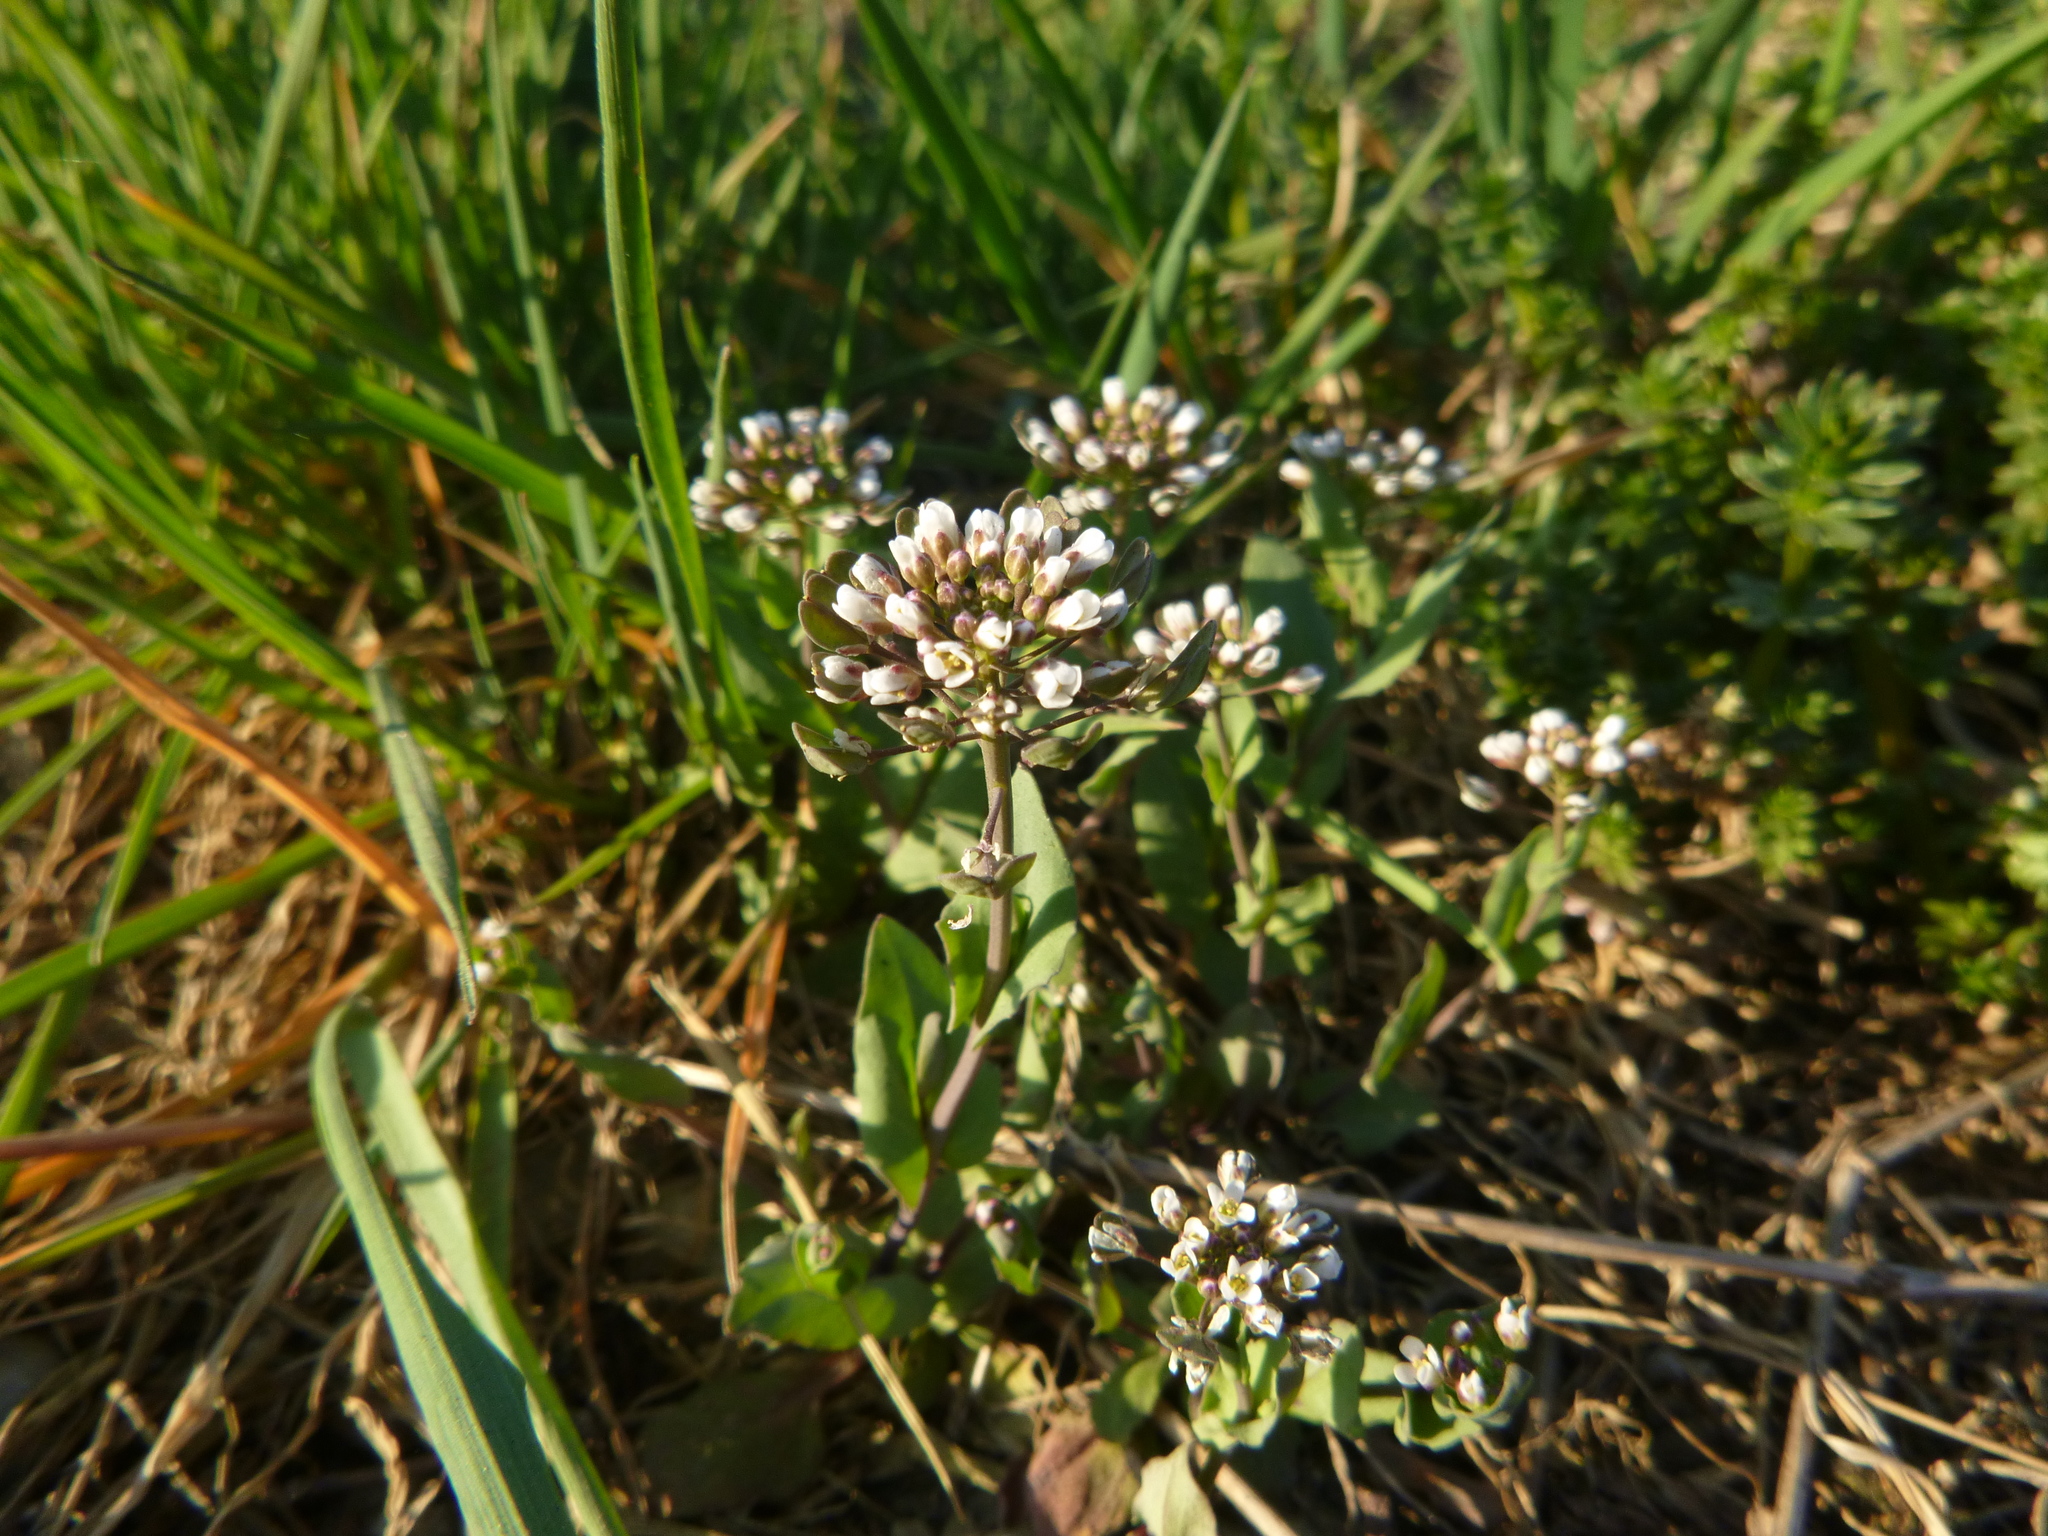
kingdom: Plantae
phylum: Tracheophyta
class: Magnoliopsida
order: Brassicales
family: Brassicaceae
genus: Noccaea
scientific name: Noccaea perfoliata
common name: Perfoliate pennycress
